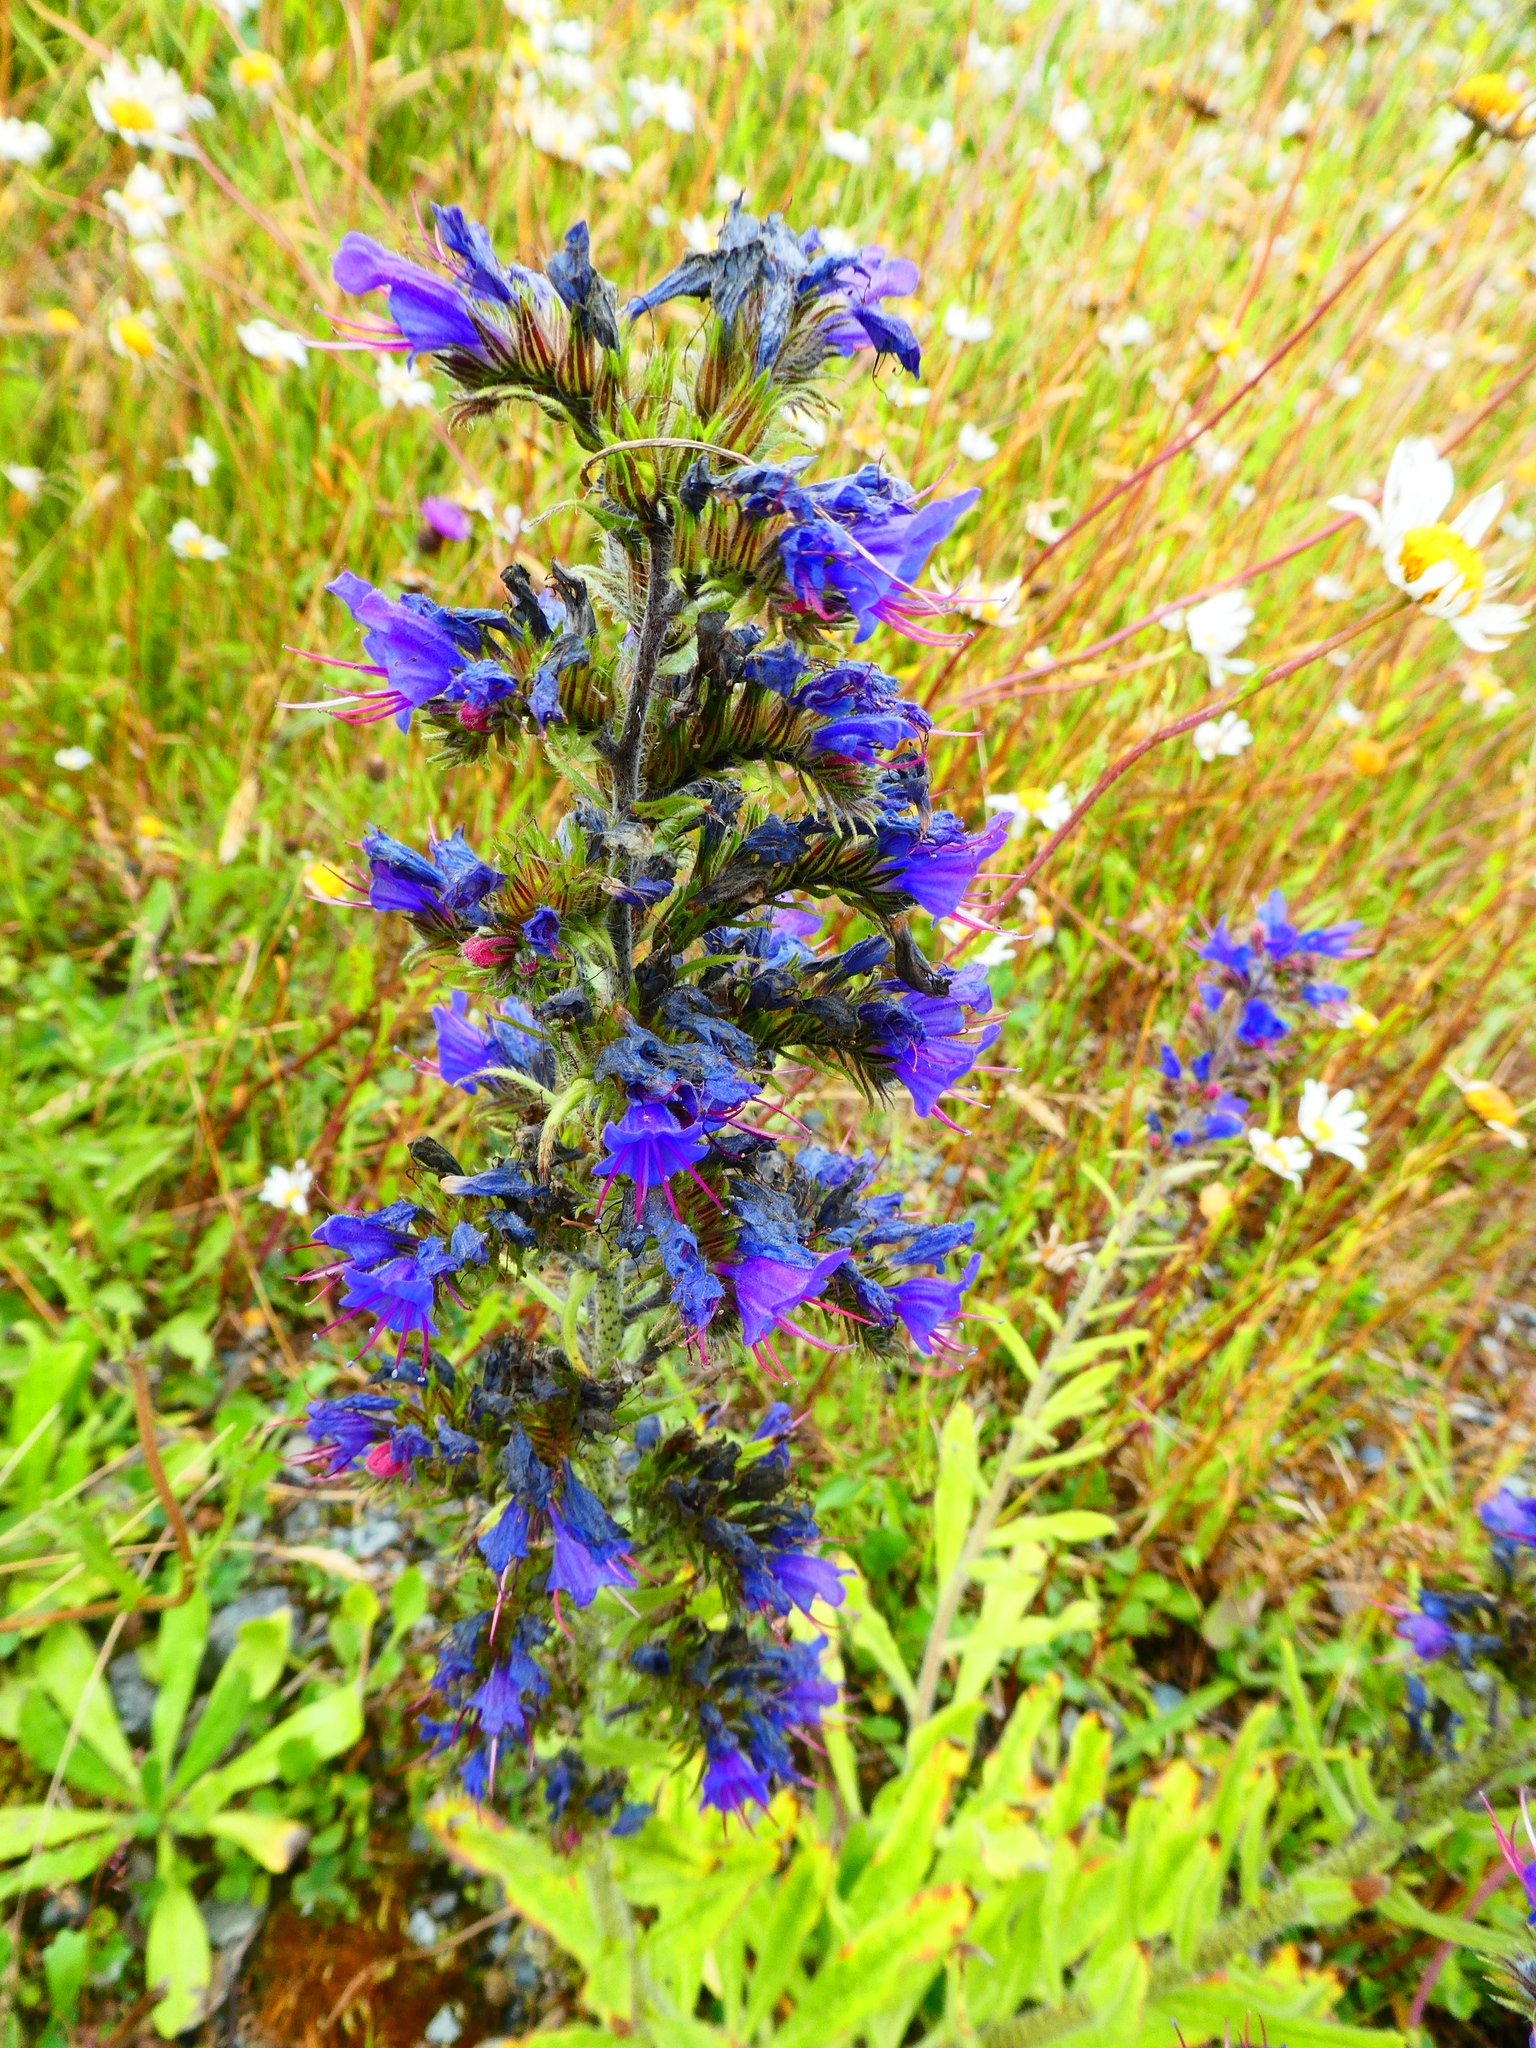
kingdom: Plantae
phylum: Tracheophyta
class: Magnoliopsida
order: Boraginales
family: Boraginaceae
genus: Echium
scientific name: Echium vulgare
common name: Common viper's bugloss
